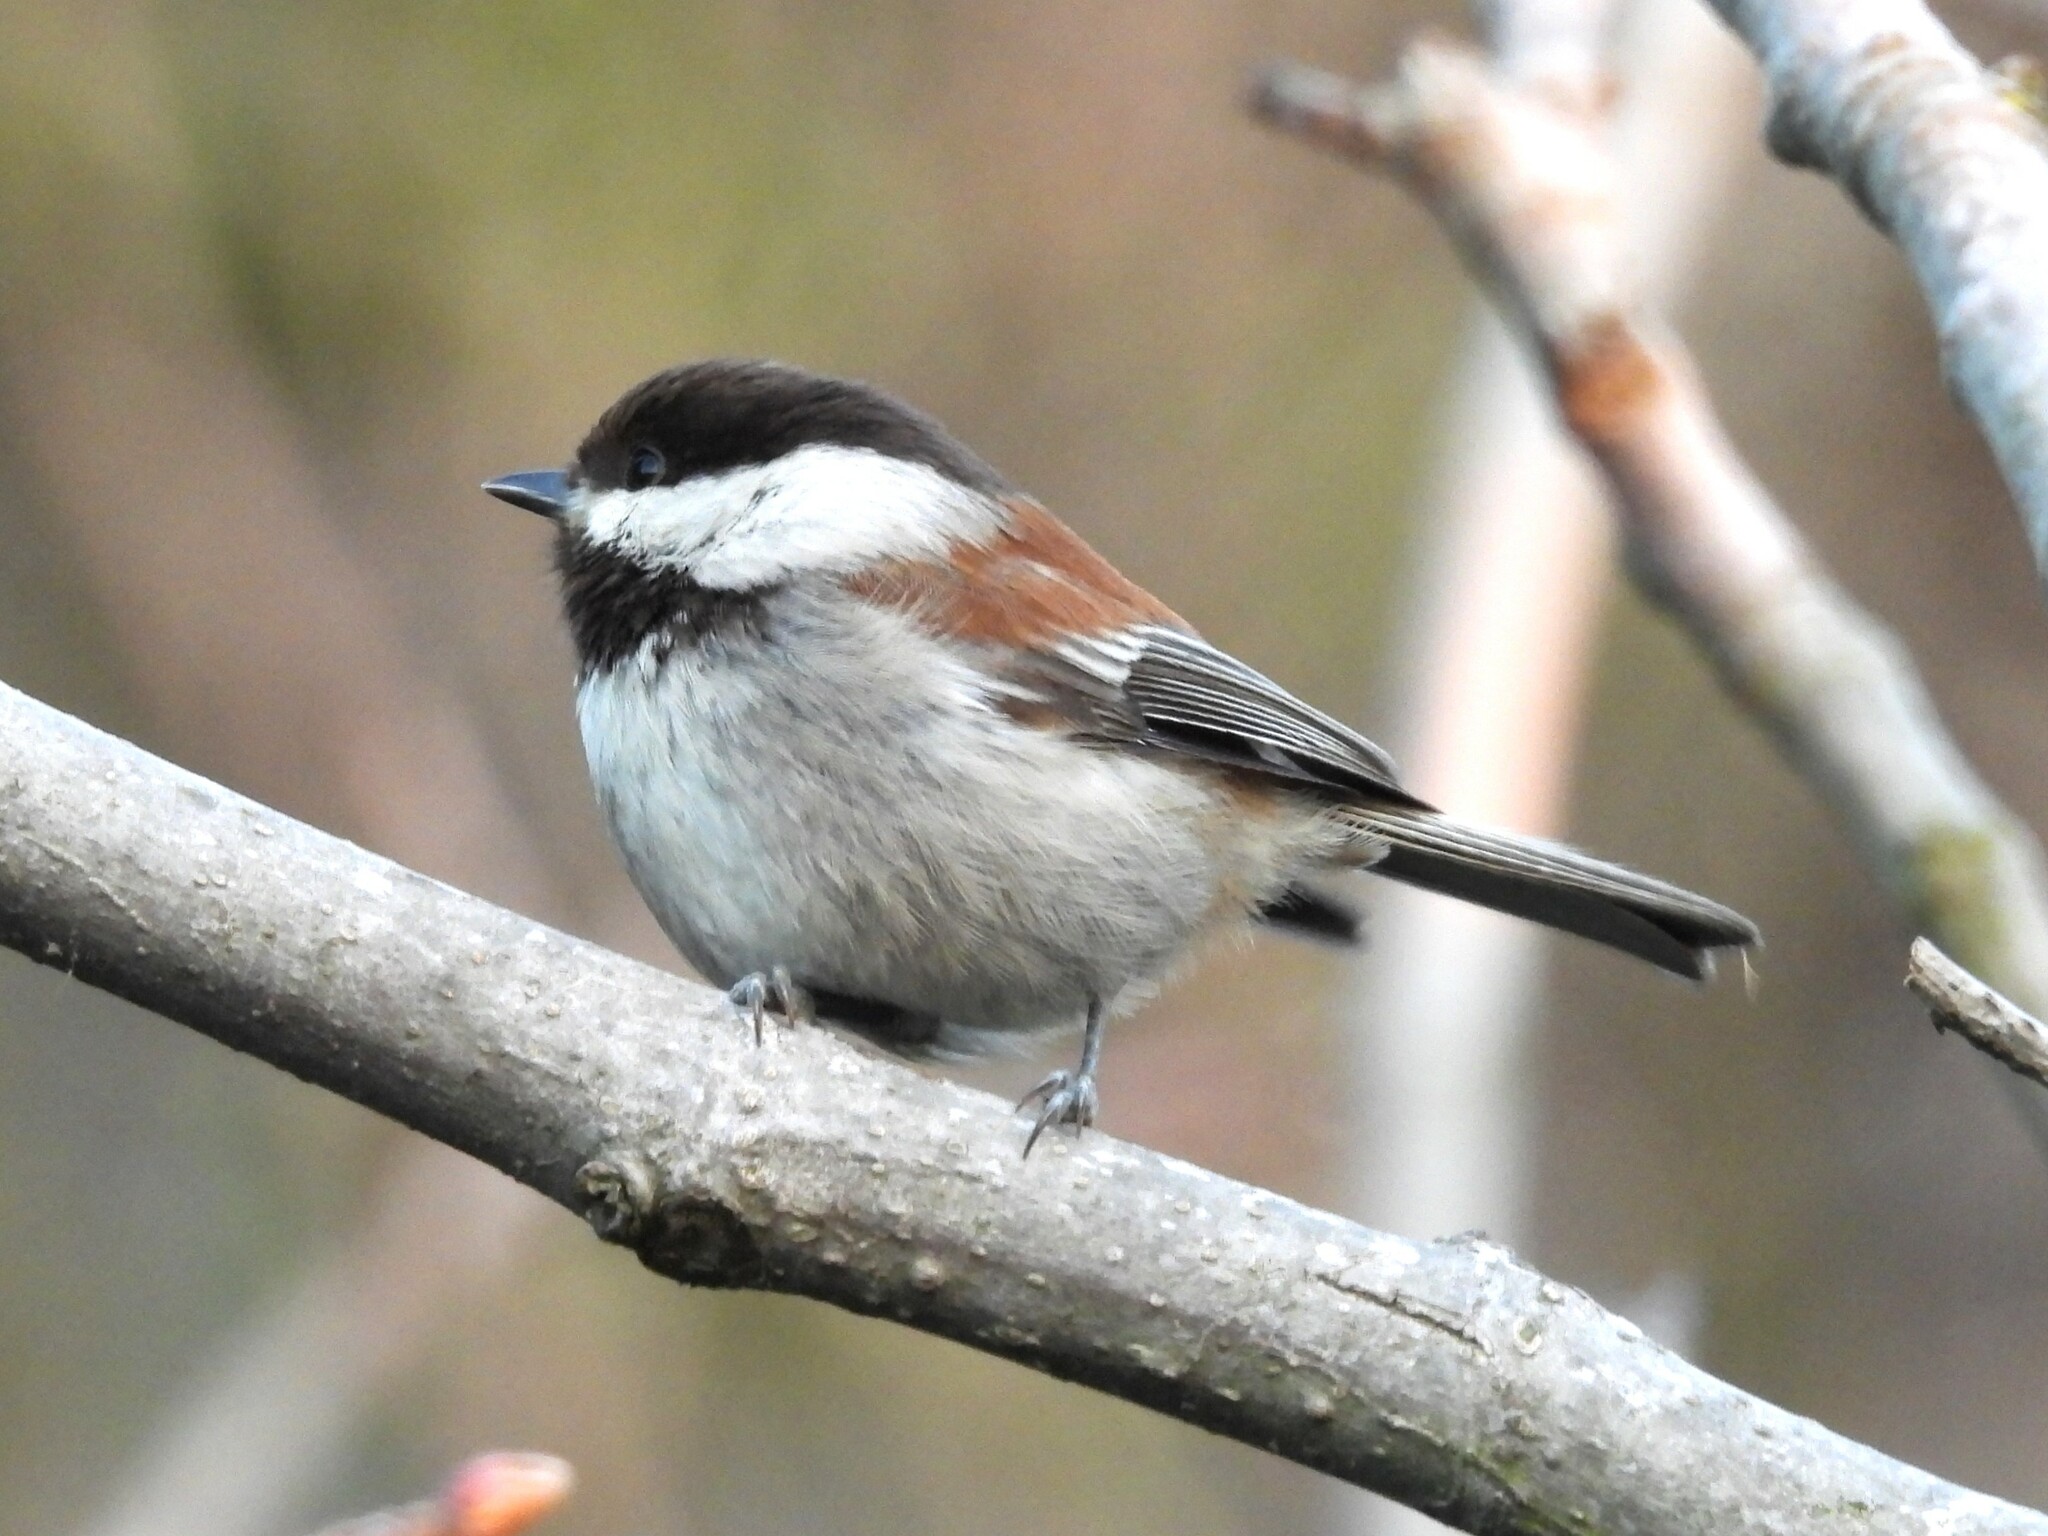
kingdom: Animalia
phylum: Chordata
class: Aves
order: Passeriformes
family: Paridae
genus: Poecile
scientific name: Poecile rufescens
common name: Chestnut-backed chickadee
